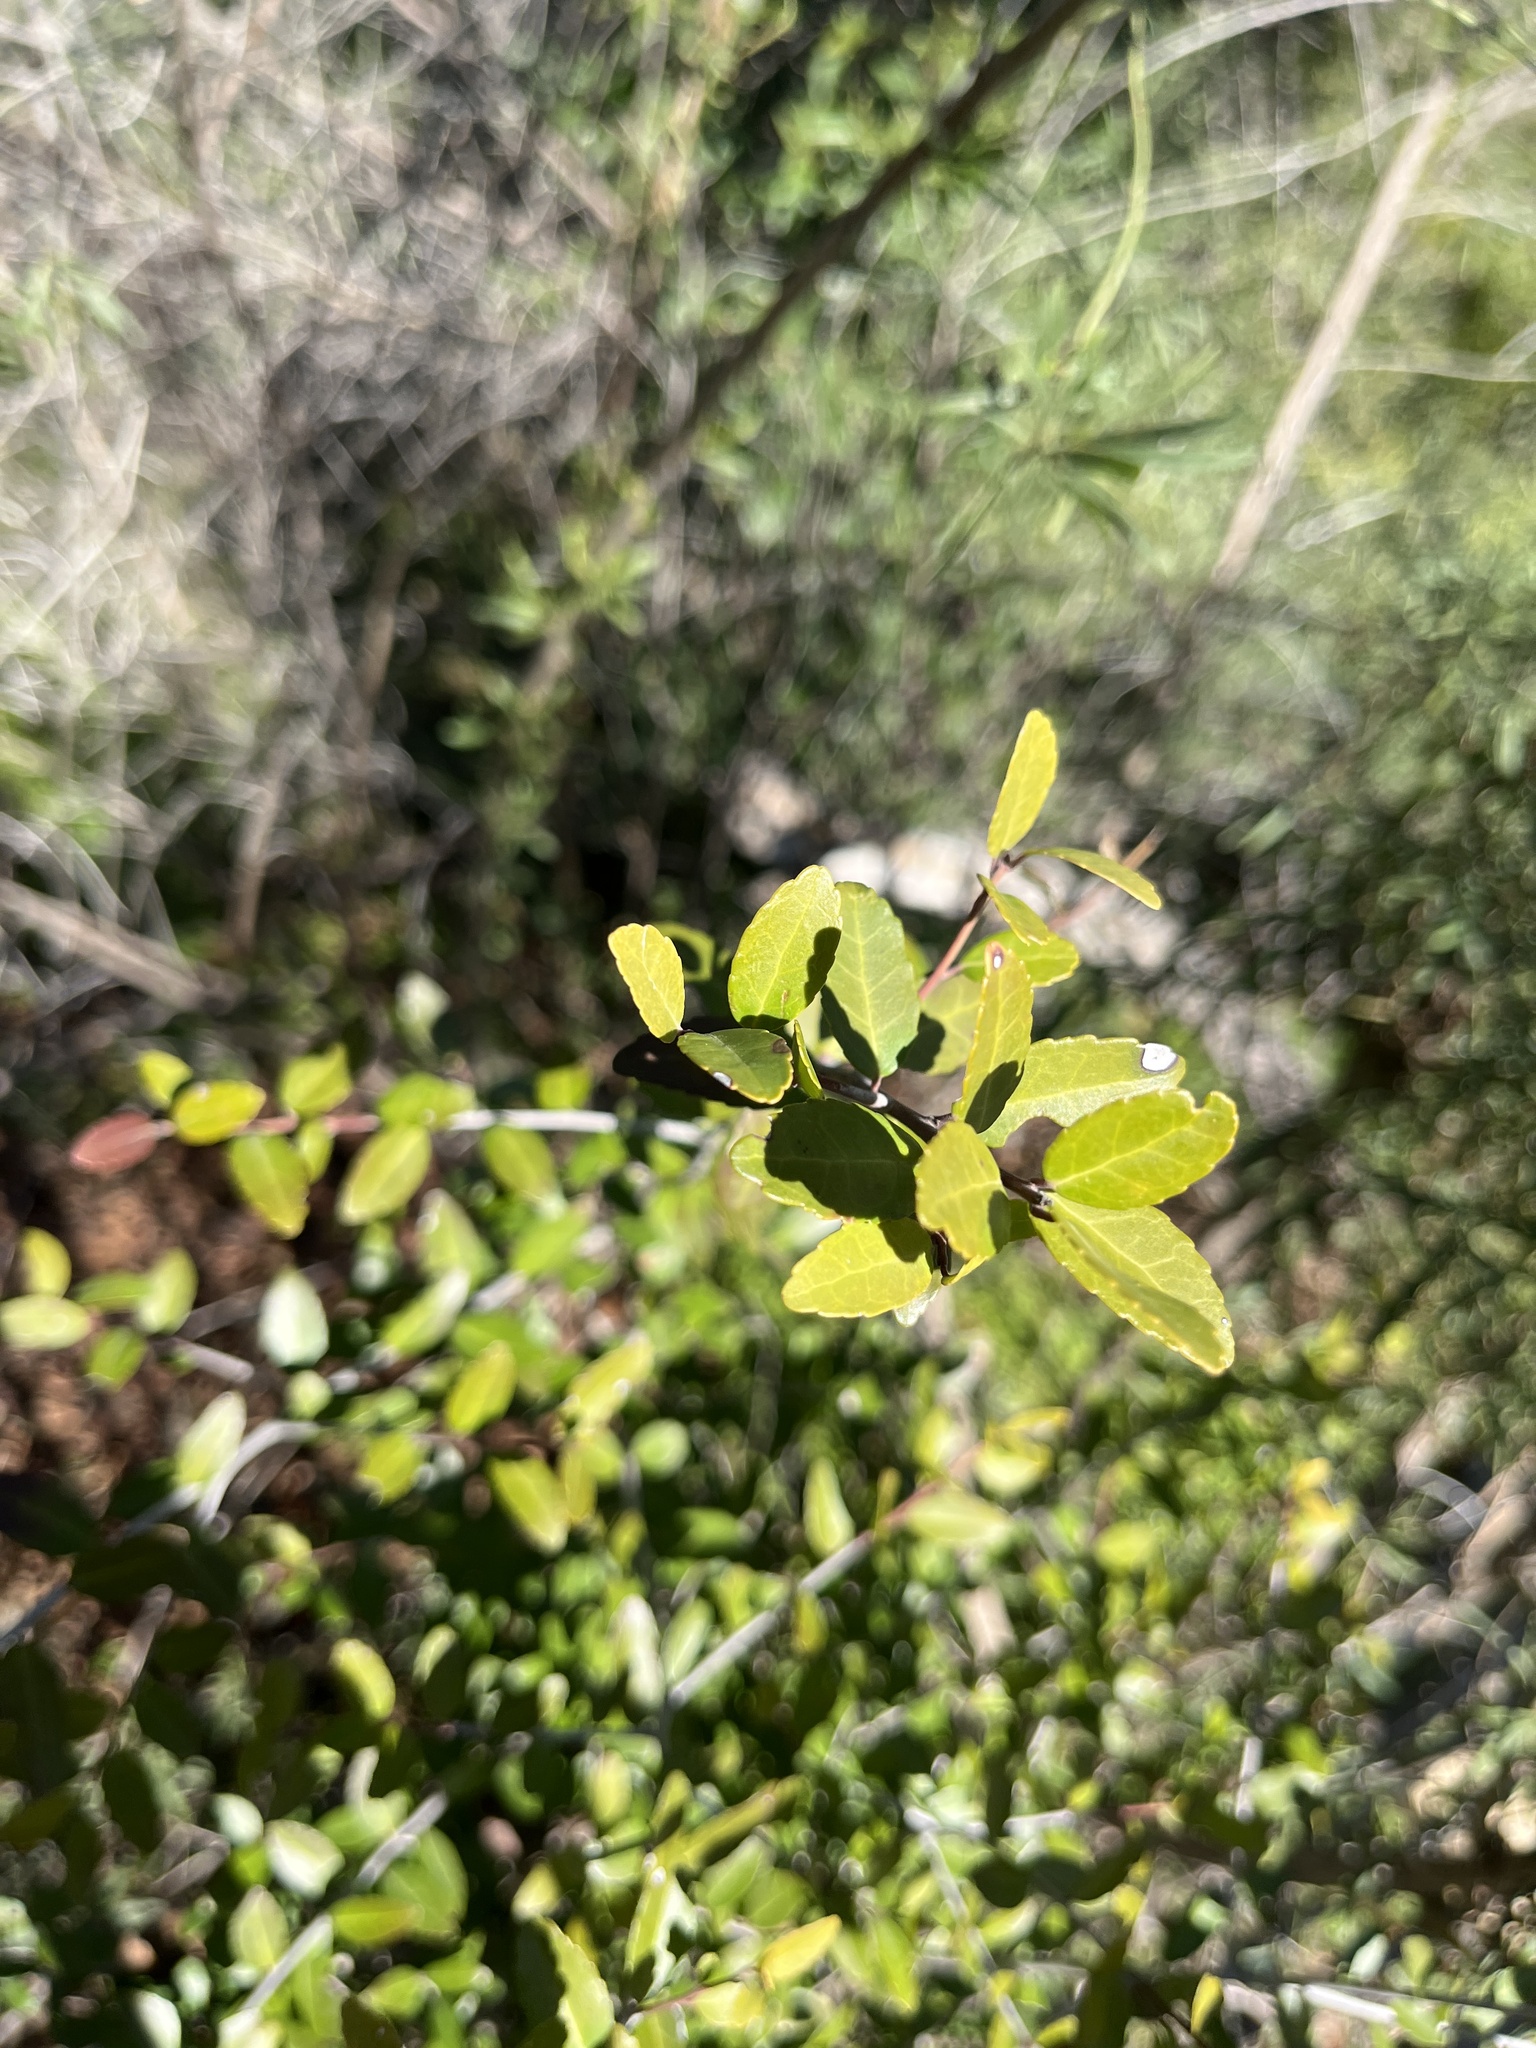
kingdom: Plantae
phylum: Tracheophyta
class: Magnoliopsida
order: Aquifoliales
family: Aquifoliaceae
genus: Ilex
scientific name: Ilex vomitoria
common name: Yaupon holly
